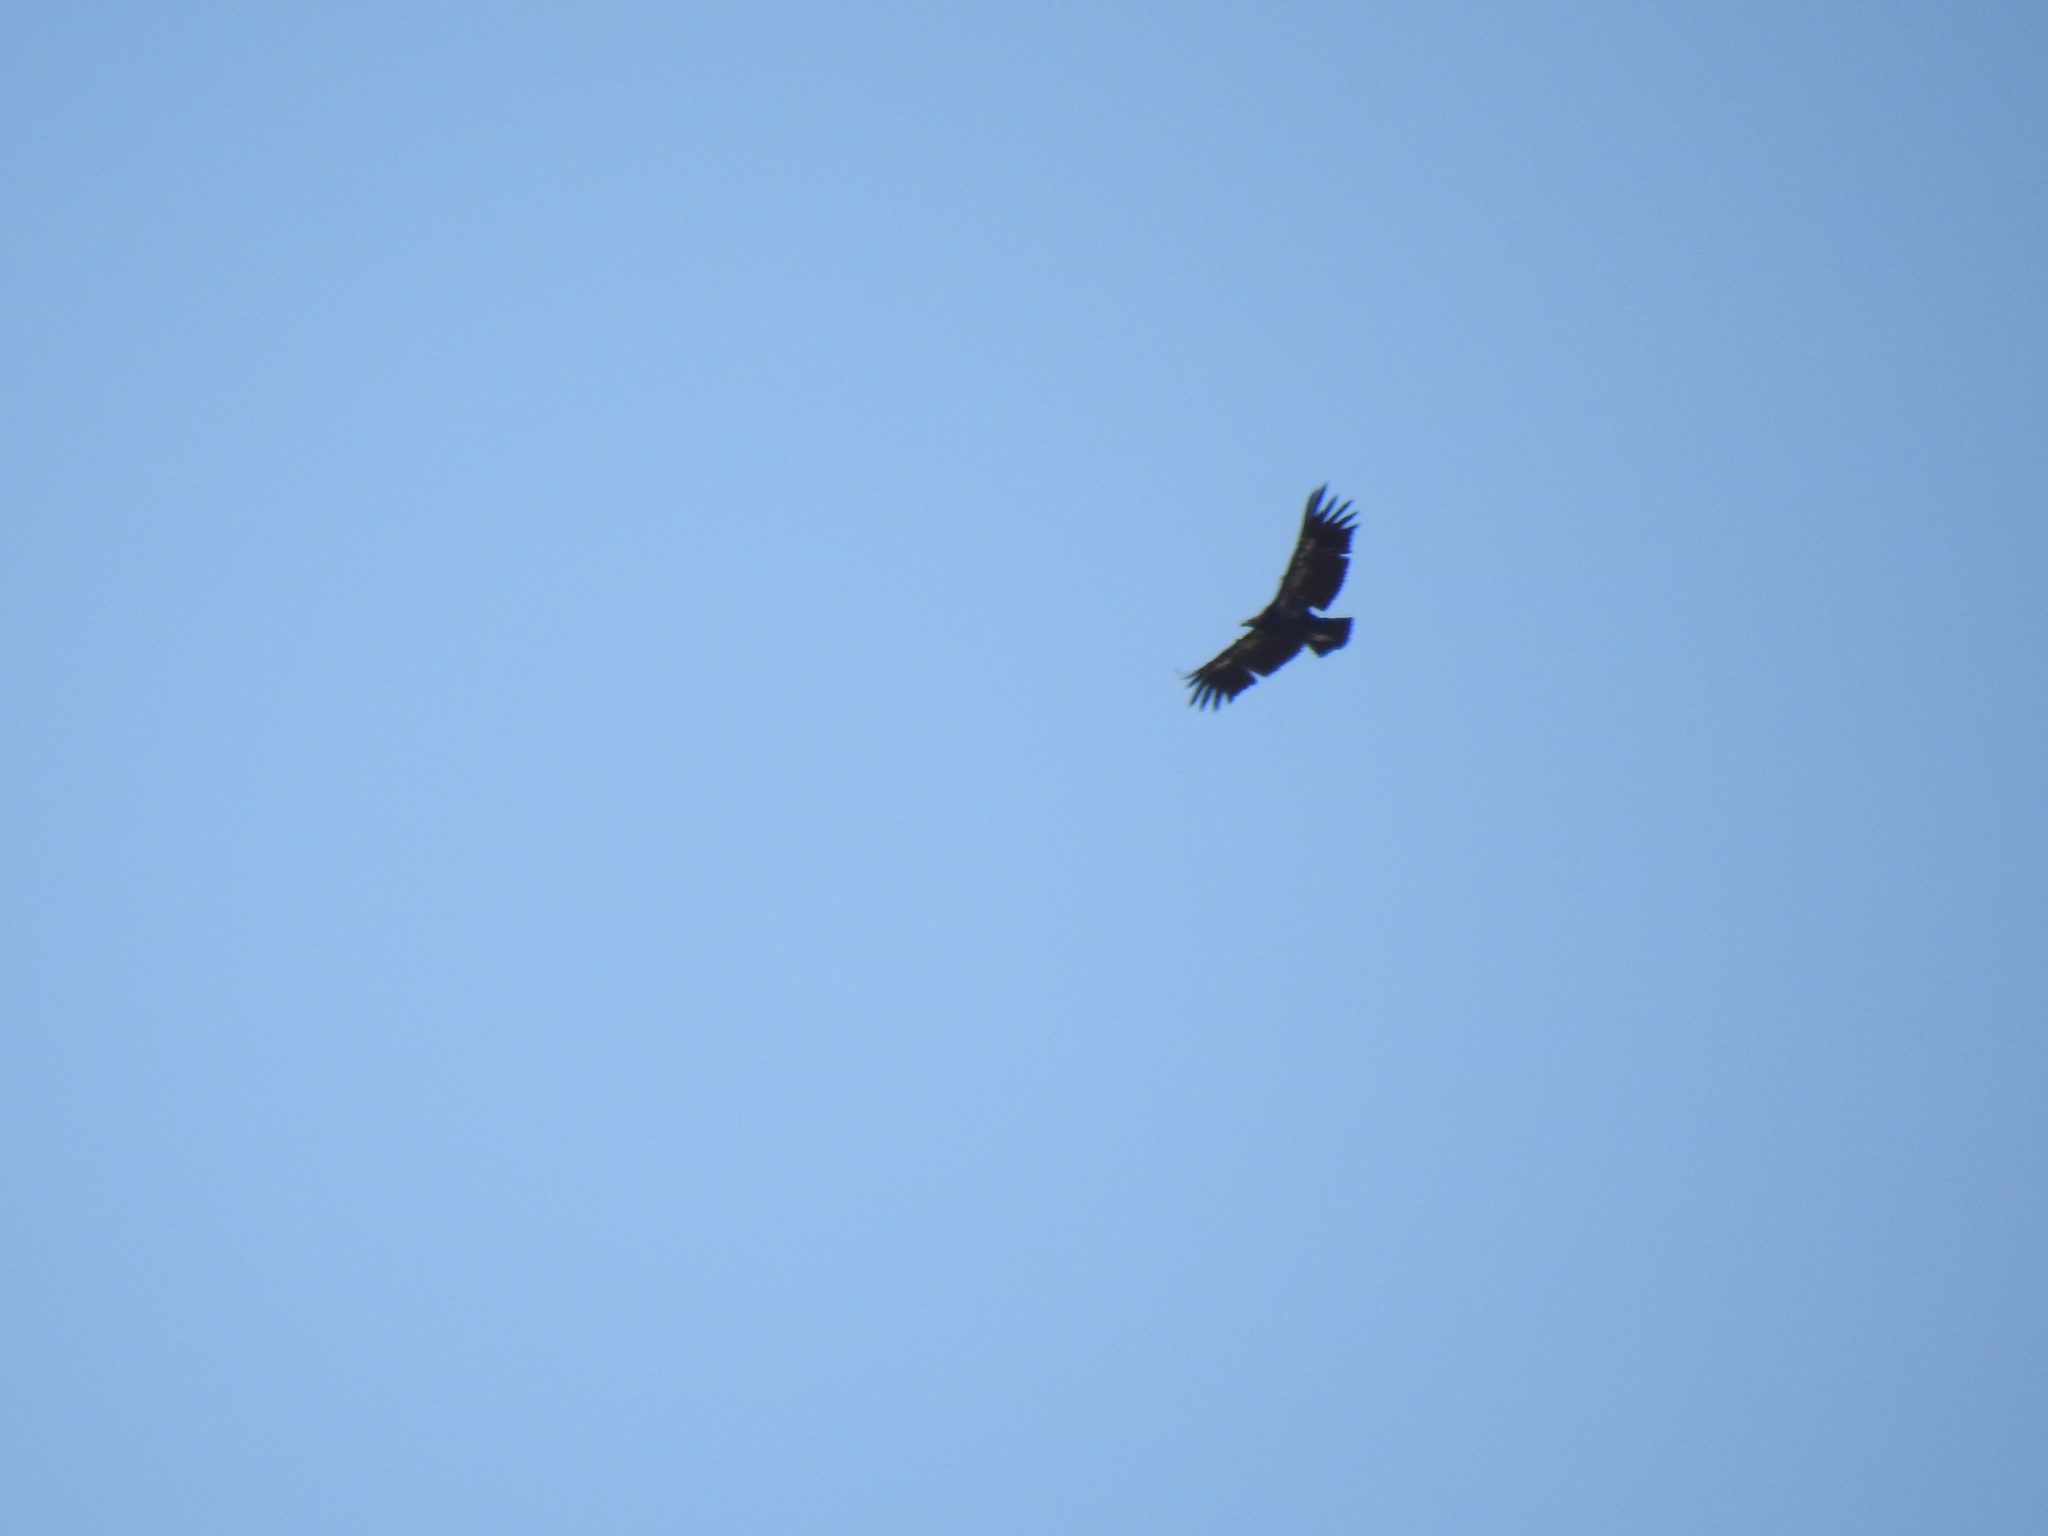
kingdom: Animalia
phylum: Chordata
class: Aves
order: Accipitriformes
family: Cathartidae
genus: Gymnogyps
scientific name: Gymnogyps californianus
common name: California condor
